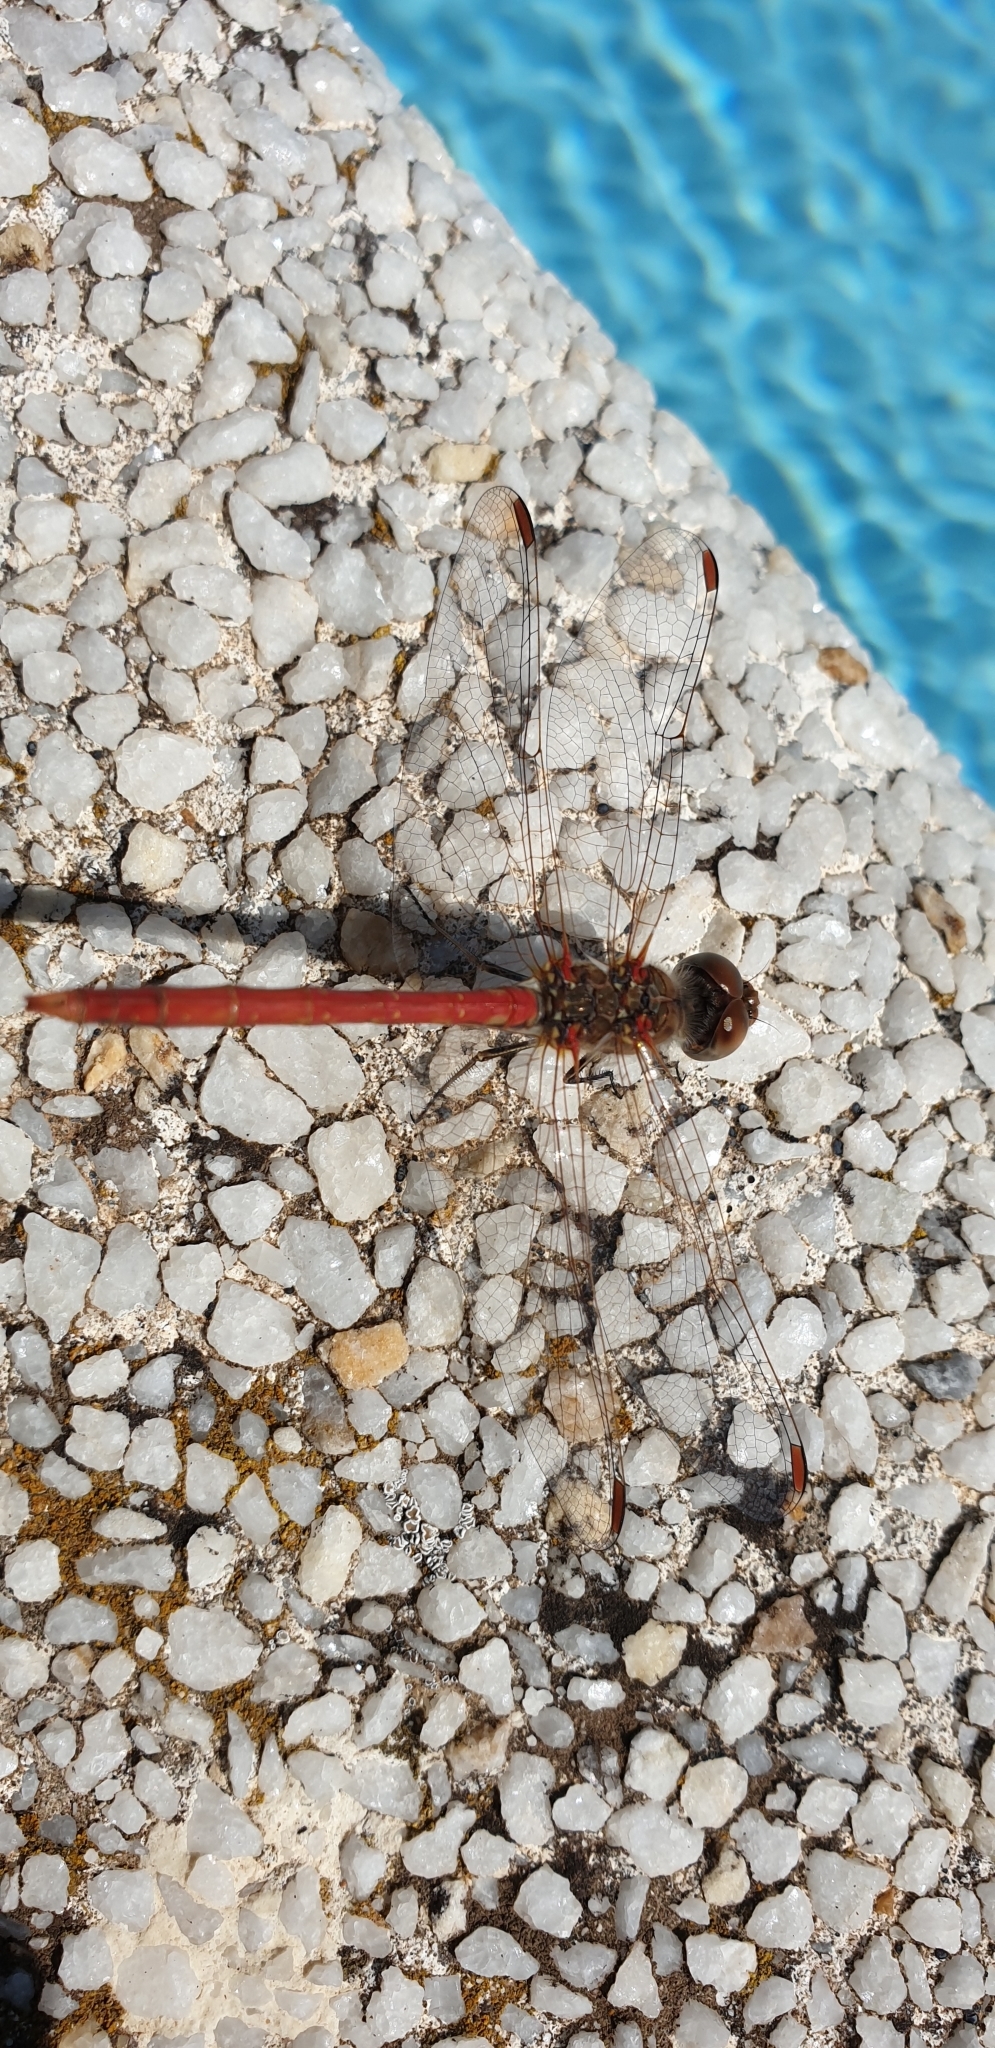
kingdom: Animalia
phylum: Arthropoda
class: Insecta
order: Odonata
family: Libellulidae
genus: Sympetrum
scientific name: Sympetrum striolatum
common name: Common darter
